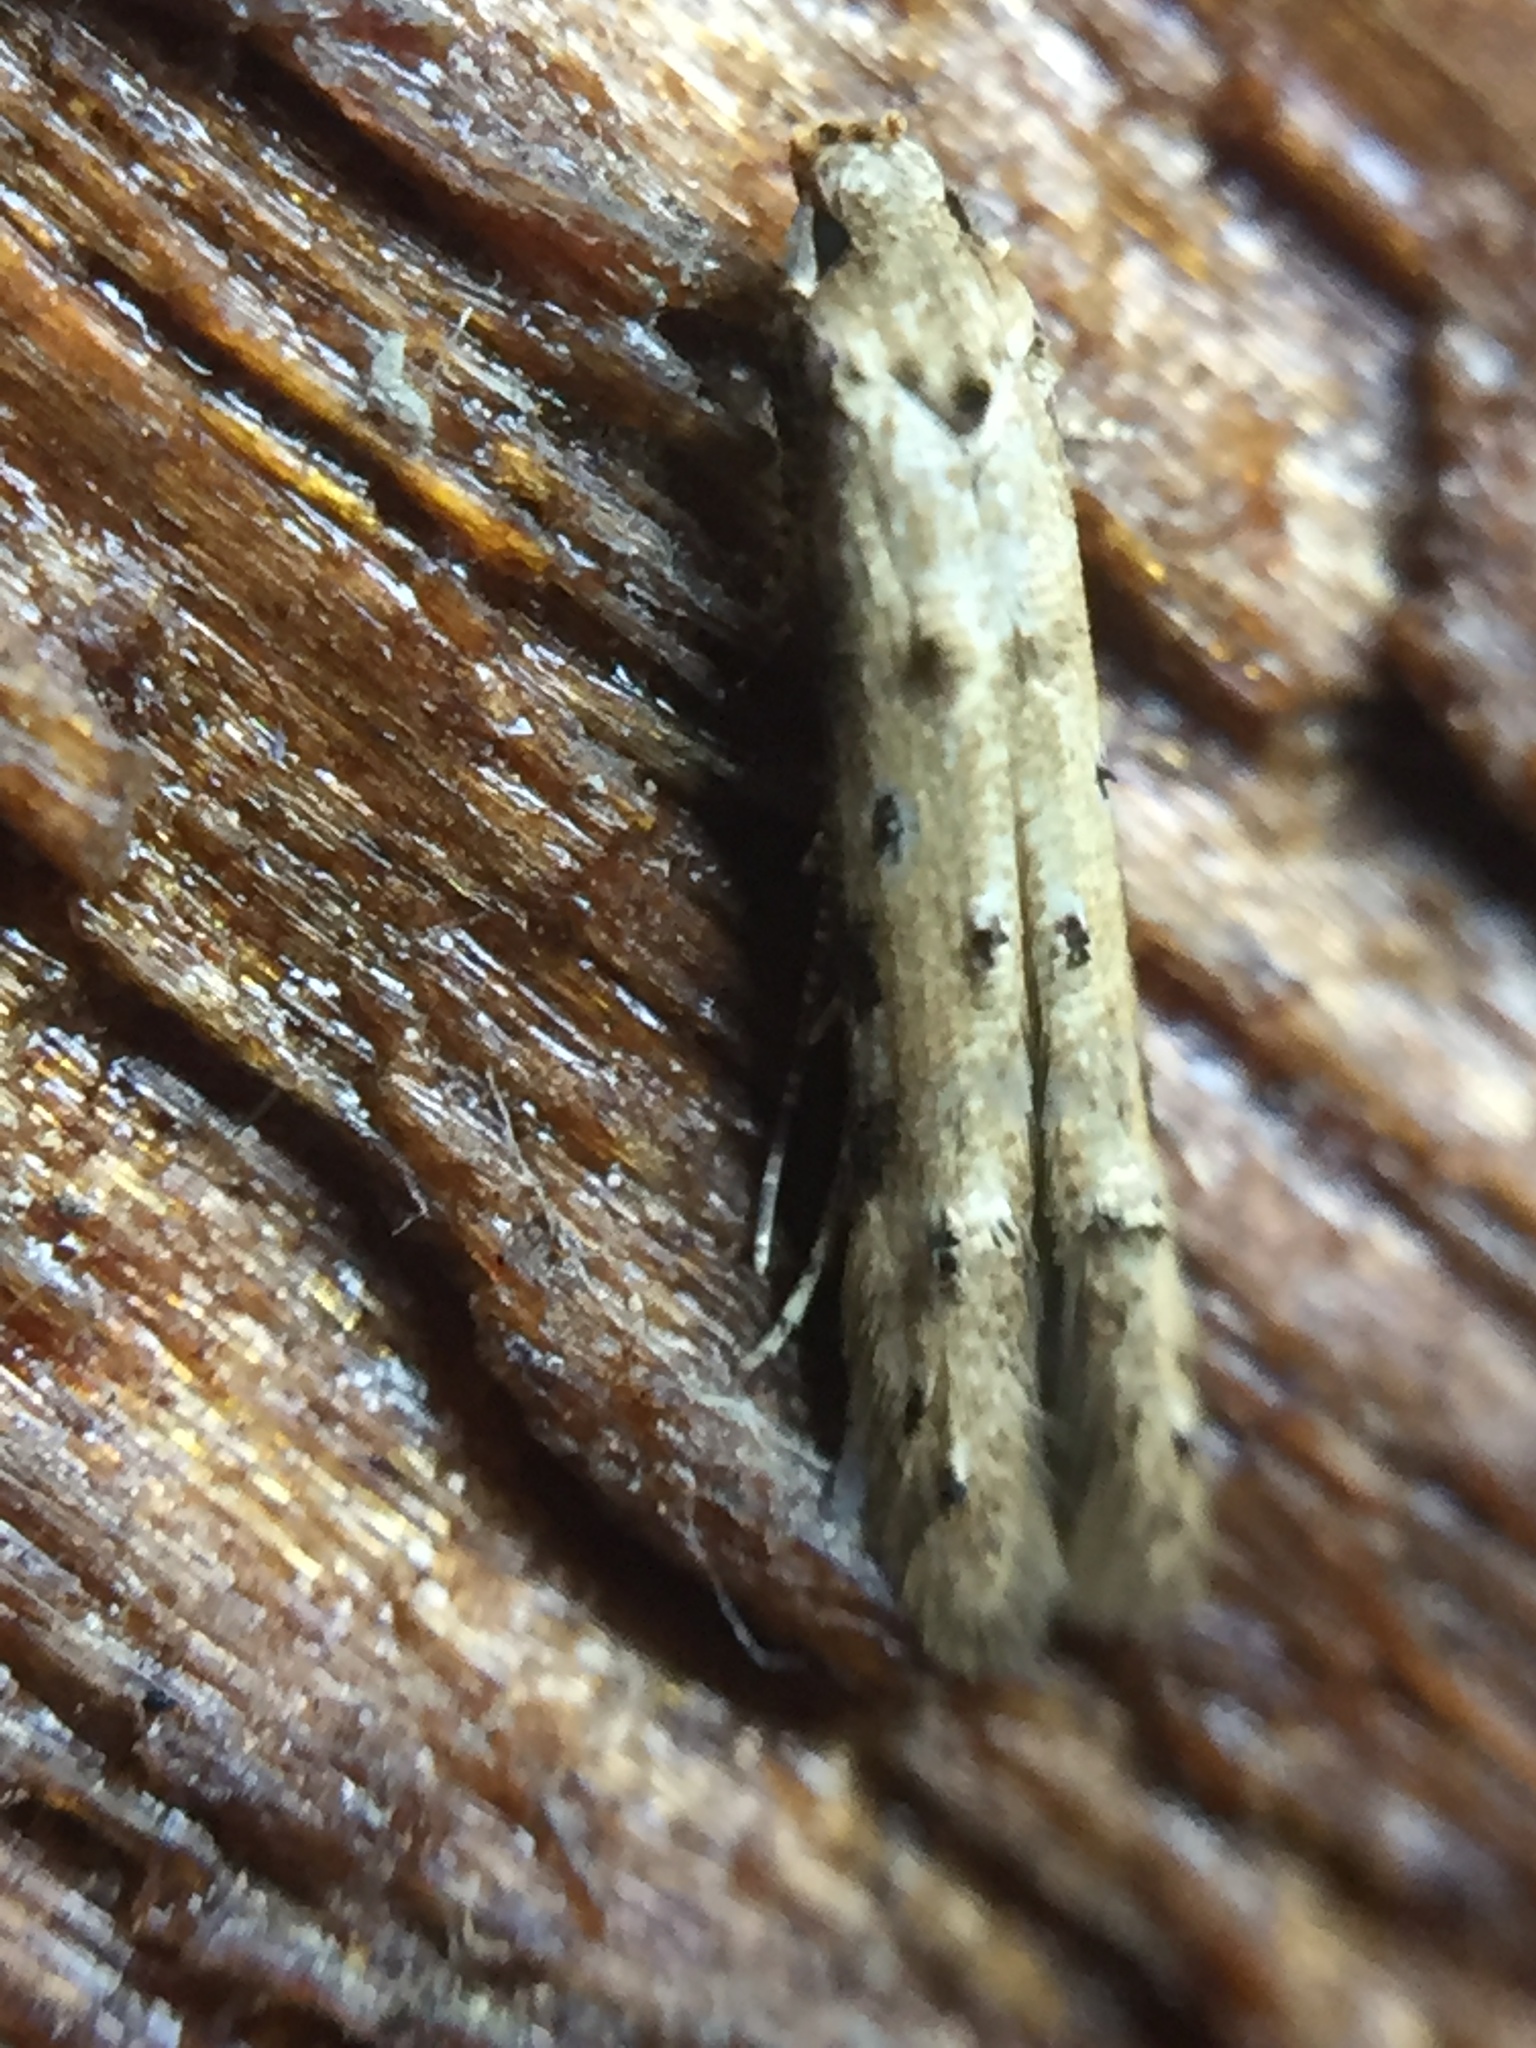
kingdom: Animalia
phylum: Arthropoda
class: Insecta
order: Lepidoptera
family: Elachistidae
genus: Microcolona
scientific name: Microcolona limodes
